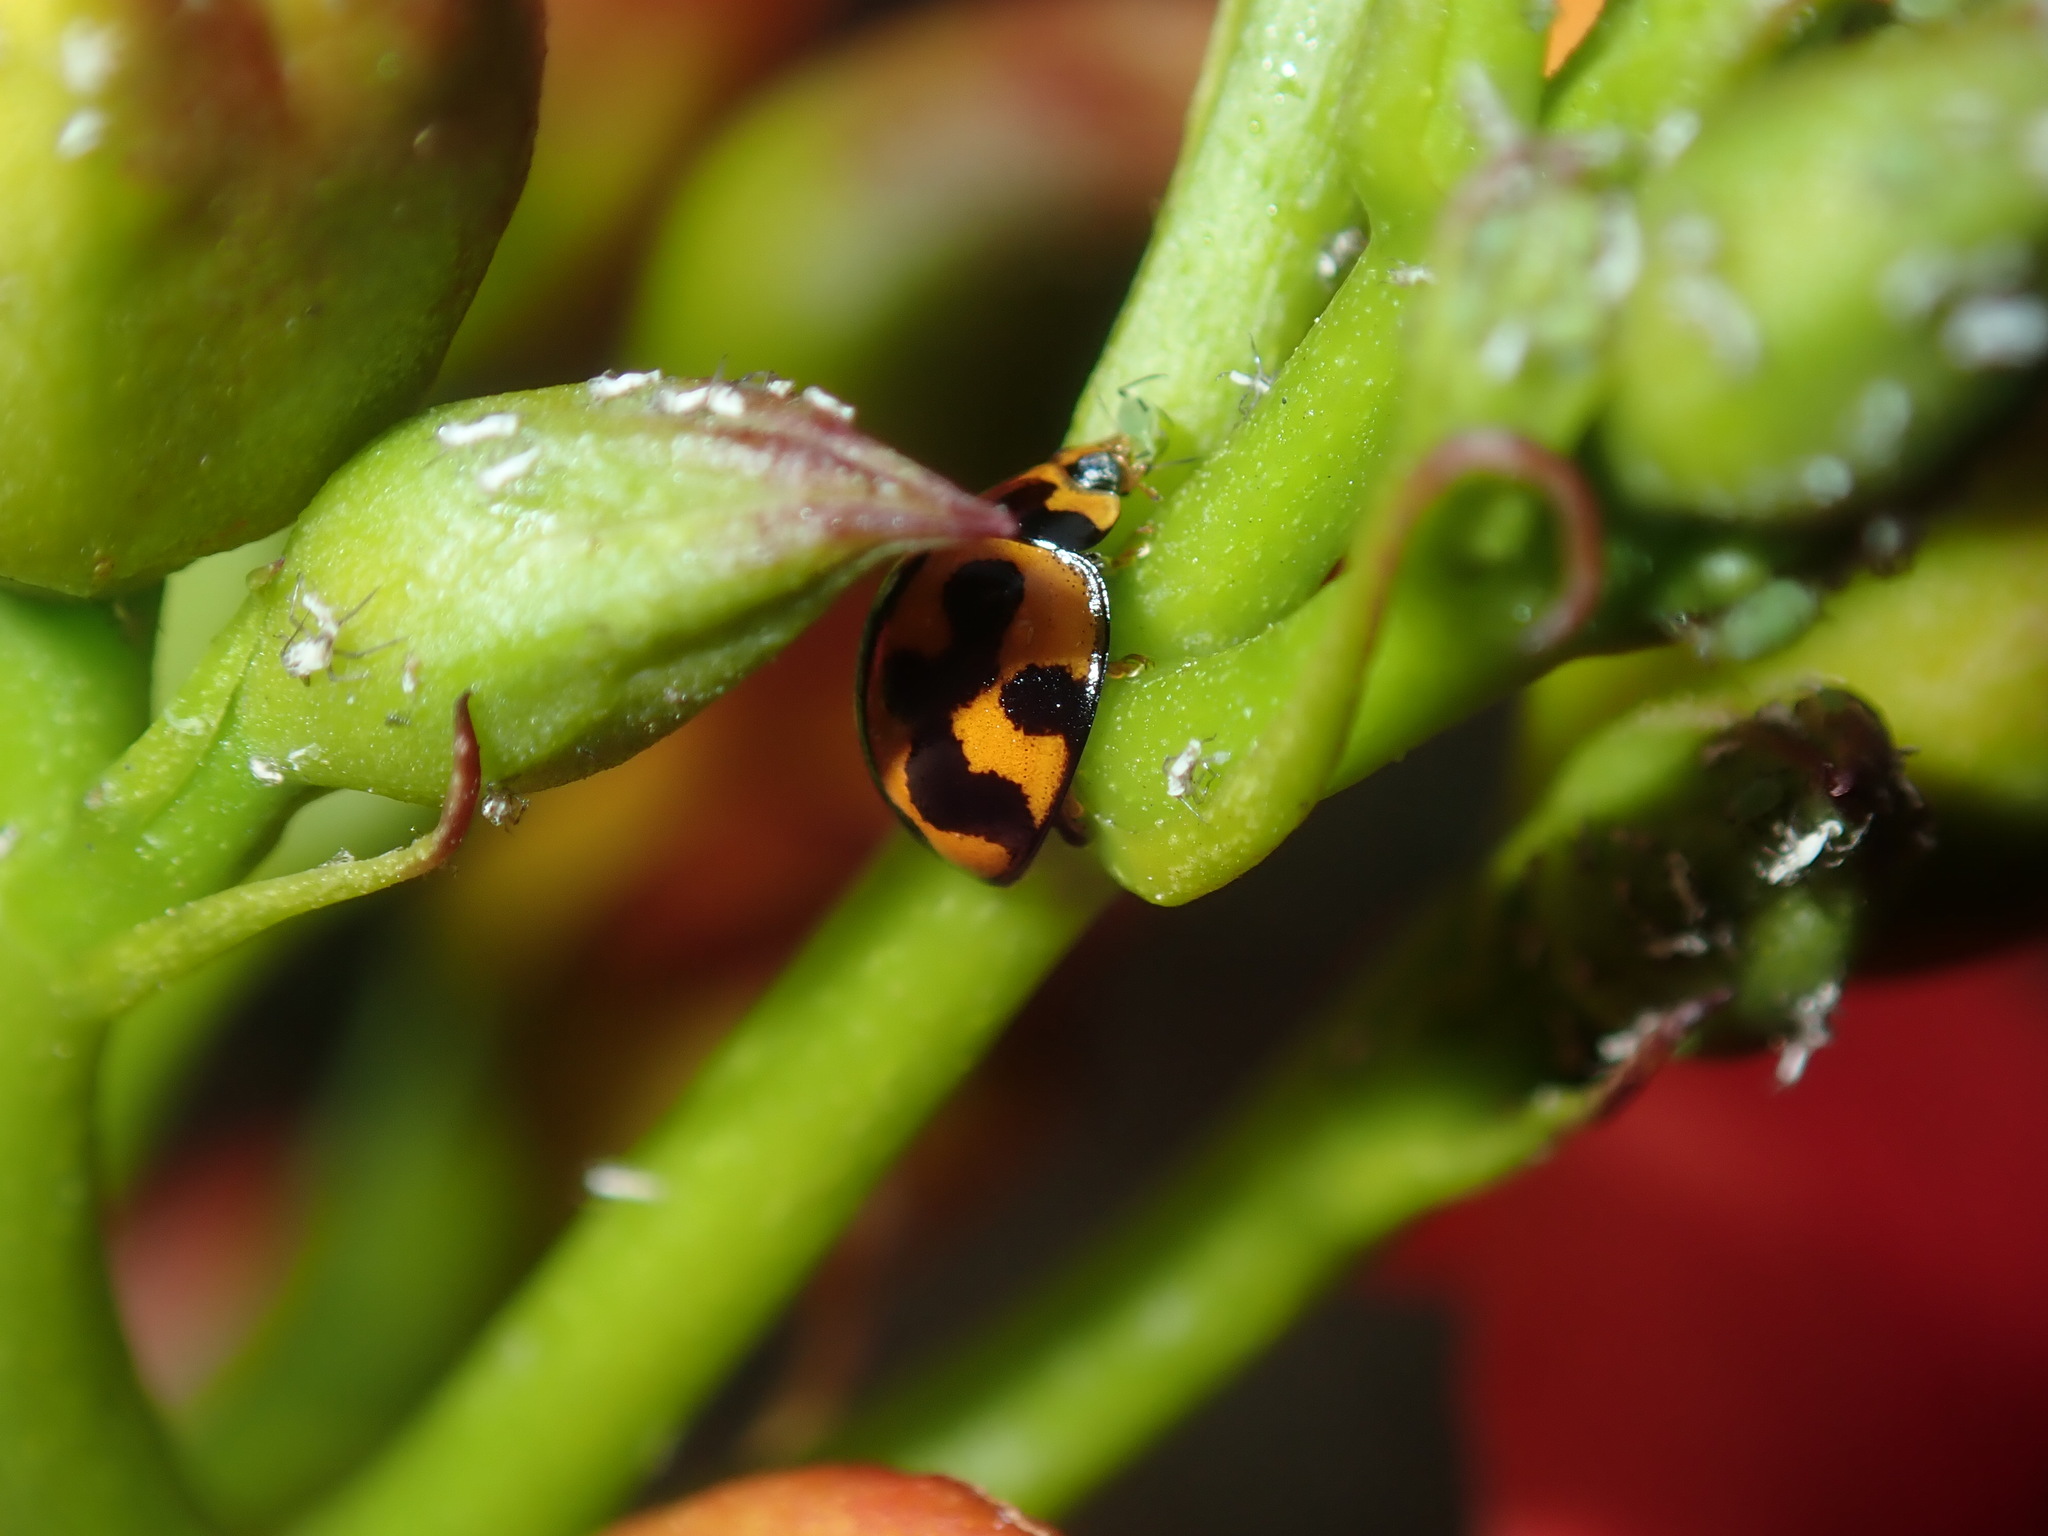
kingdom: Animalia
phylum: Arthropoda
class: Insecta
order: Coleoptera
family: Coccinellidae
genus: Coelophora
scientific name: Coelophora inaequalis
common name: Common australian lady beetle
